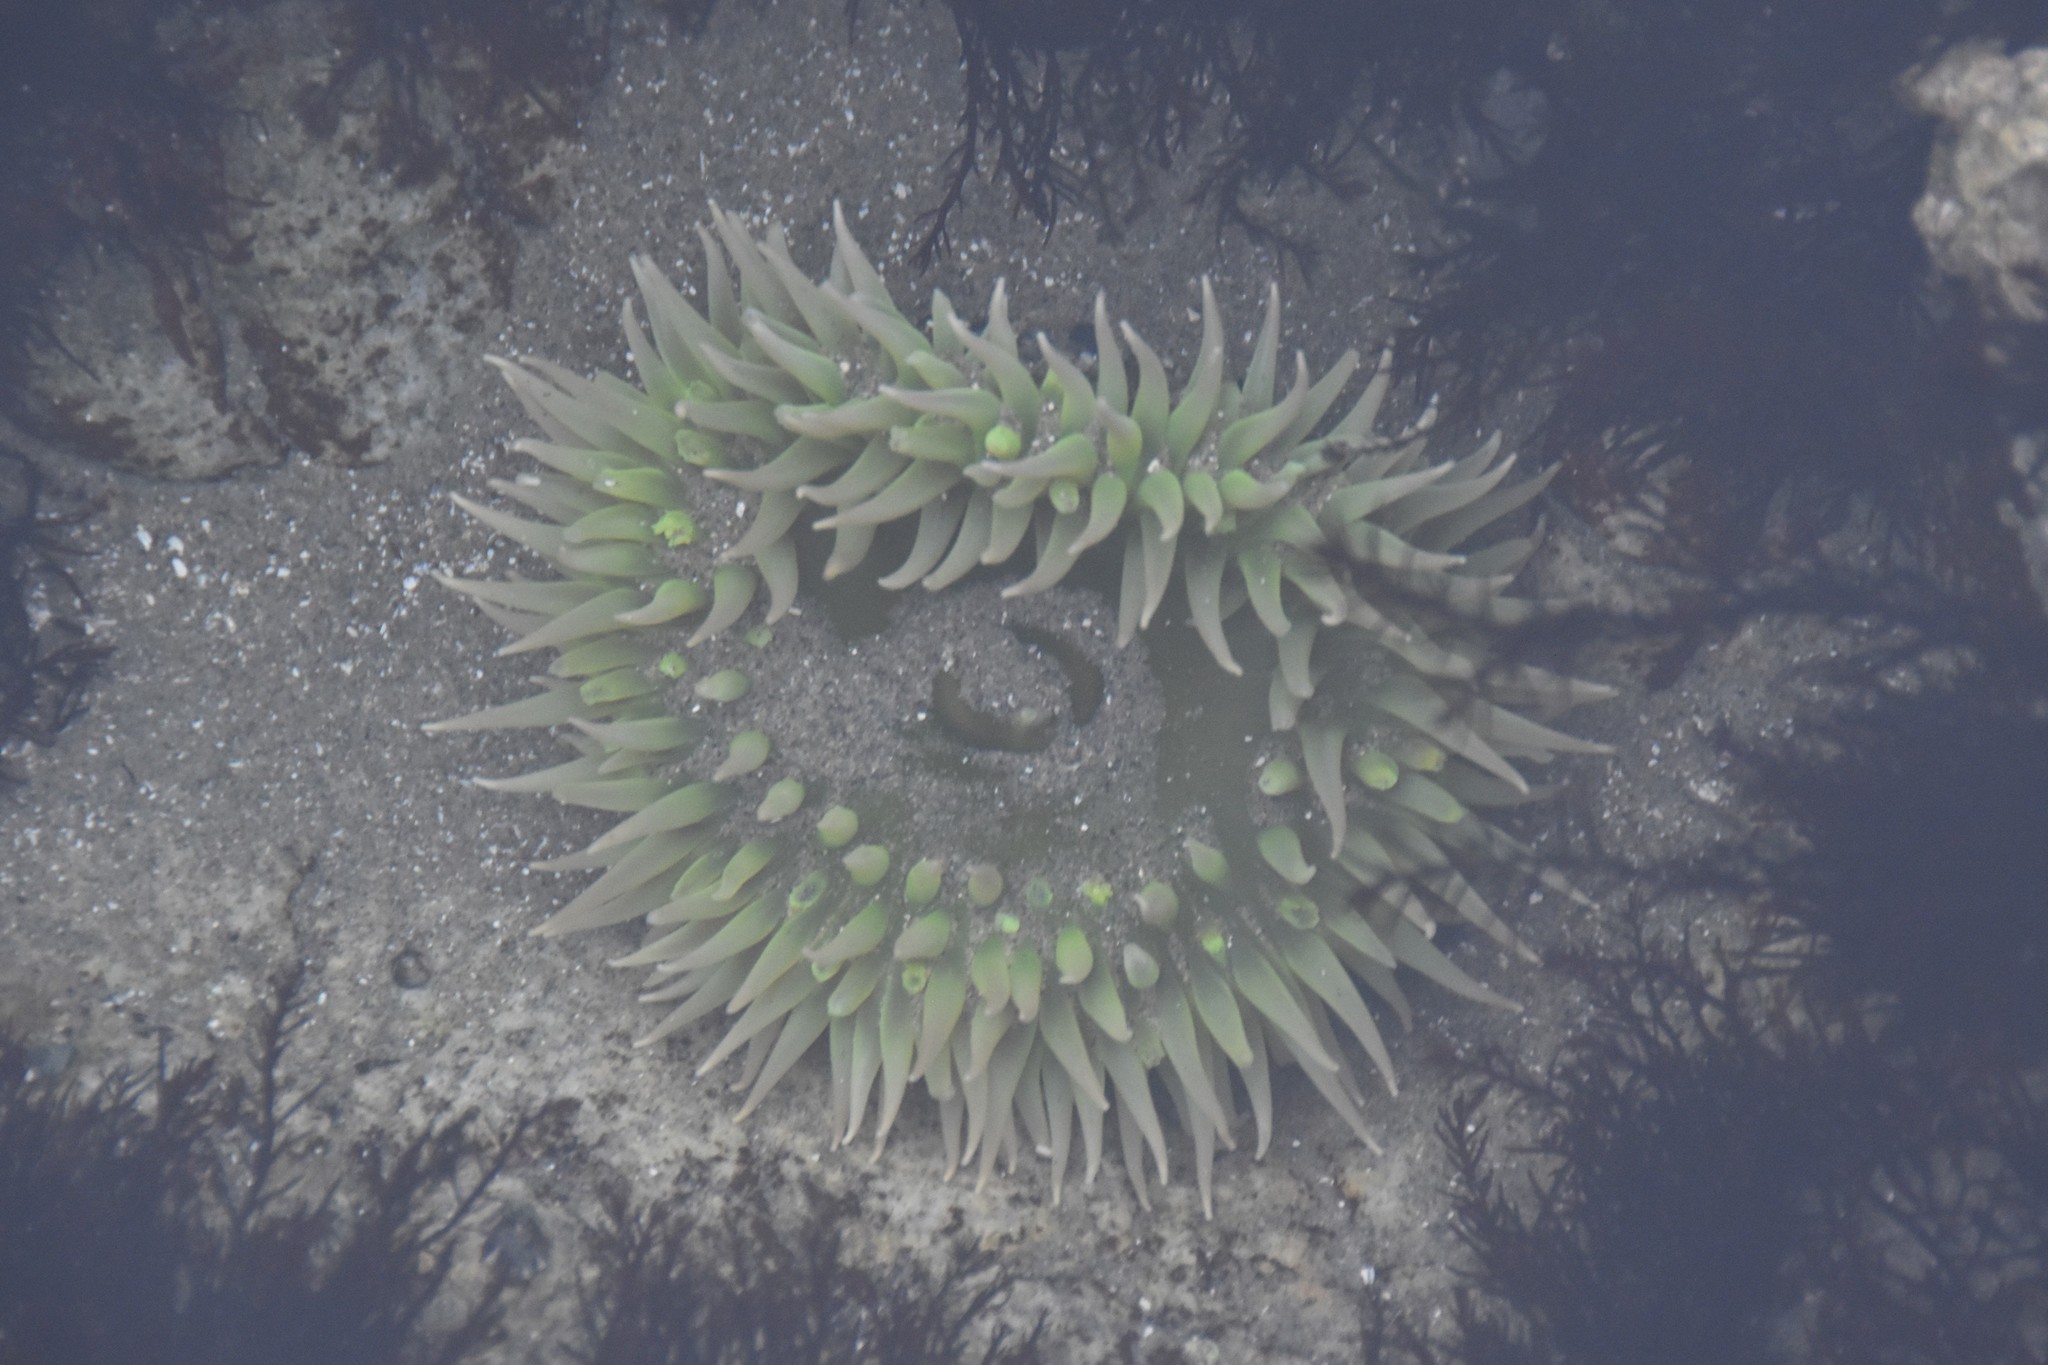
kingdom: Animalia
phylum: Cnidaria
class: Anthozoa
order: Actiniaria
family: Actiniidae
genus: Anthopleura
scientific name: Anthopleura xanthogrammica
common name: Giant green anemone
